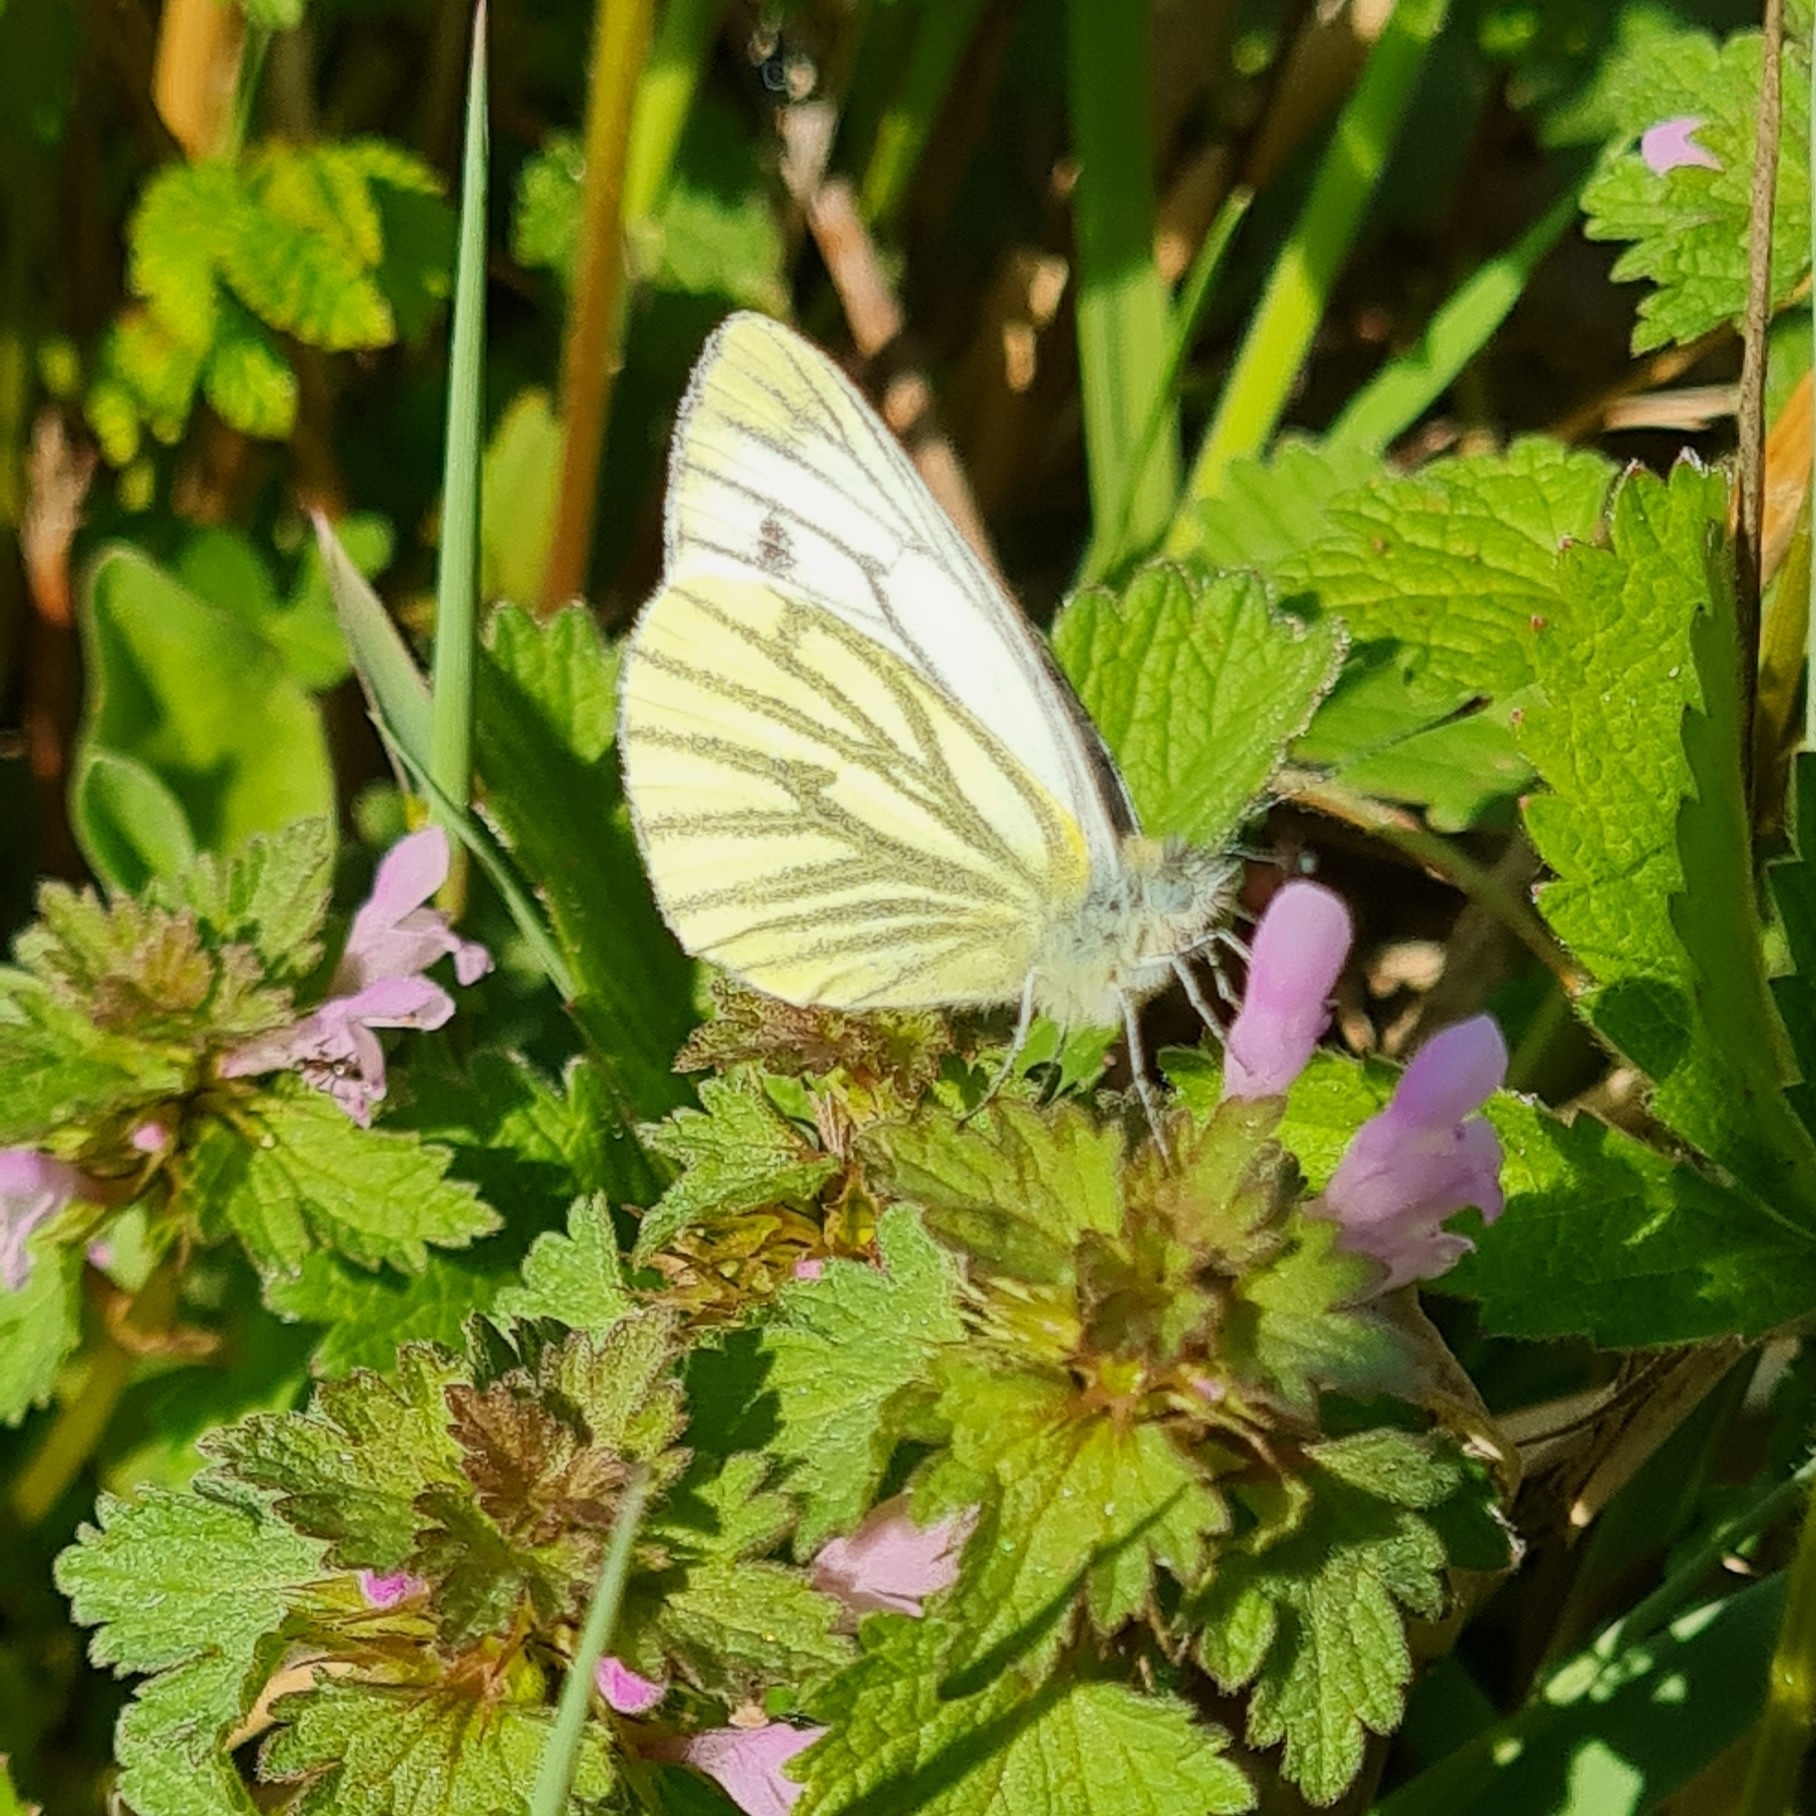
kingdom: Animalia
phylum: Arthropoda
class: Insecta
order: Lepidoptera
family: Pieridae
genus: Pieris
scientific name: Pieris napi
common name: Green-veined white
